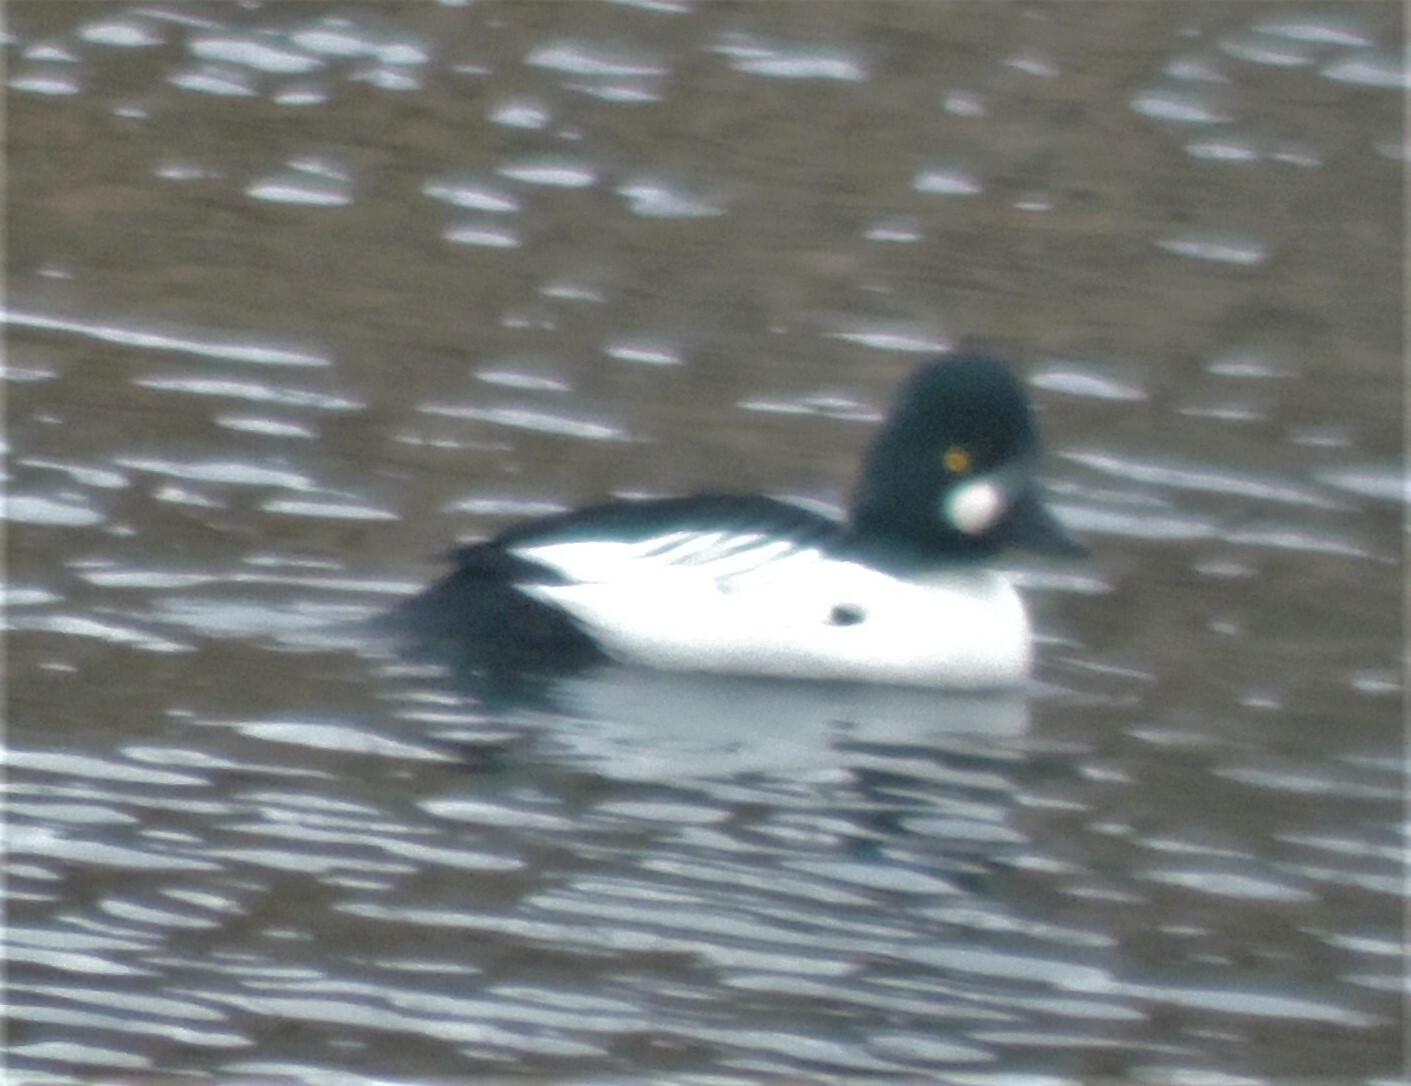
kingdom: Animalia
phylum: Chordata
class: Aves
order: Anseriformes
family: Anatidae
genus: Bucephala
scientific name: Bucephala clangula
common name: Common goldeneye
